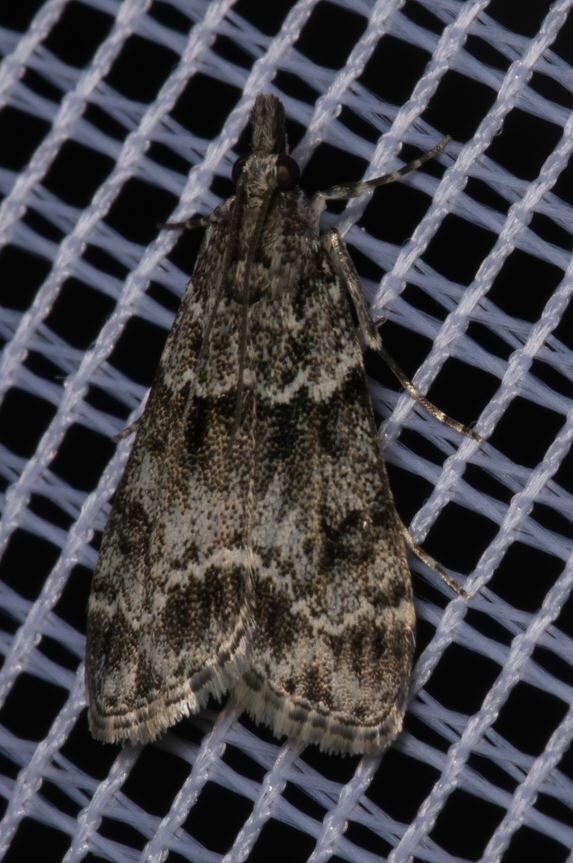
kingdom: Animalia
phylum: Arthropoda
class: Insecta
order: Lepidoptera
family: Crambidae
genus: Eudonia
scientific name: Eudonia mercurella
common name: Small grey
